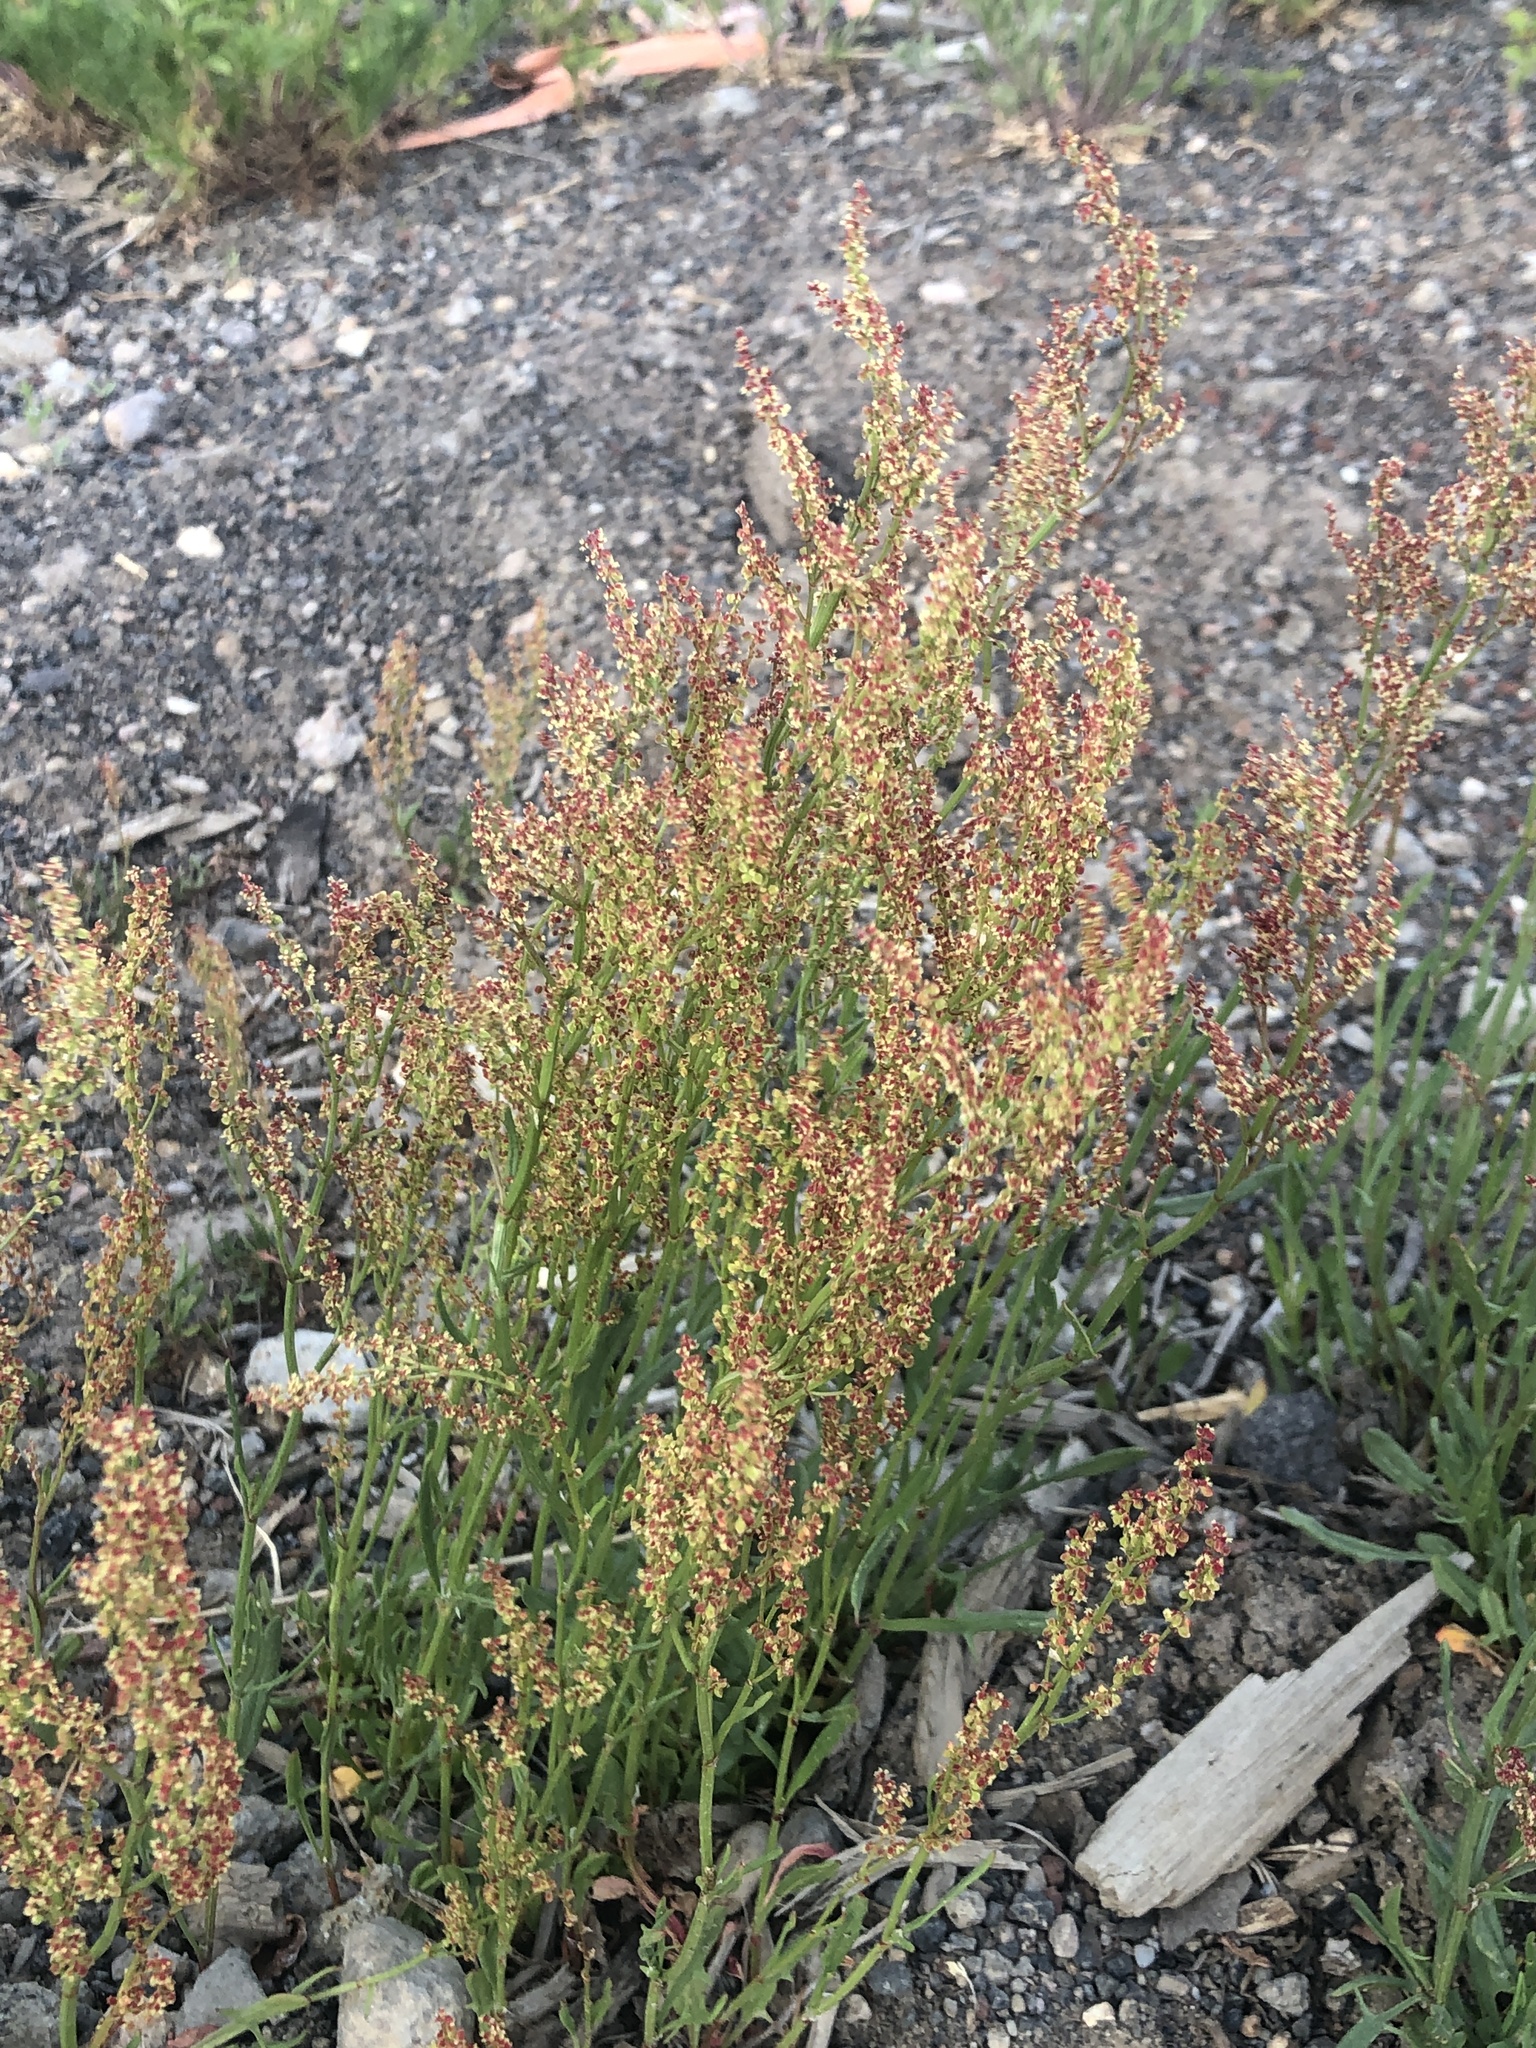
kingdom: Plantae
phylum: Tracheophyta
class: Magnoliopsida
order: Caryophyllales
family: Polygonaceae
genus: Rumex
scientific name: Rumex acetosella
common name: Common sheep sorrel
